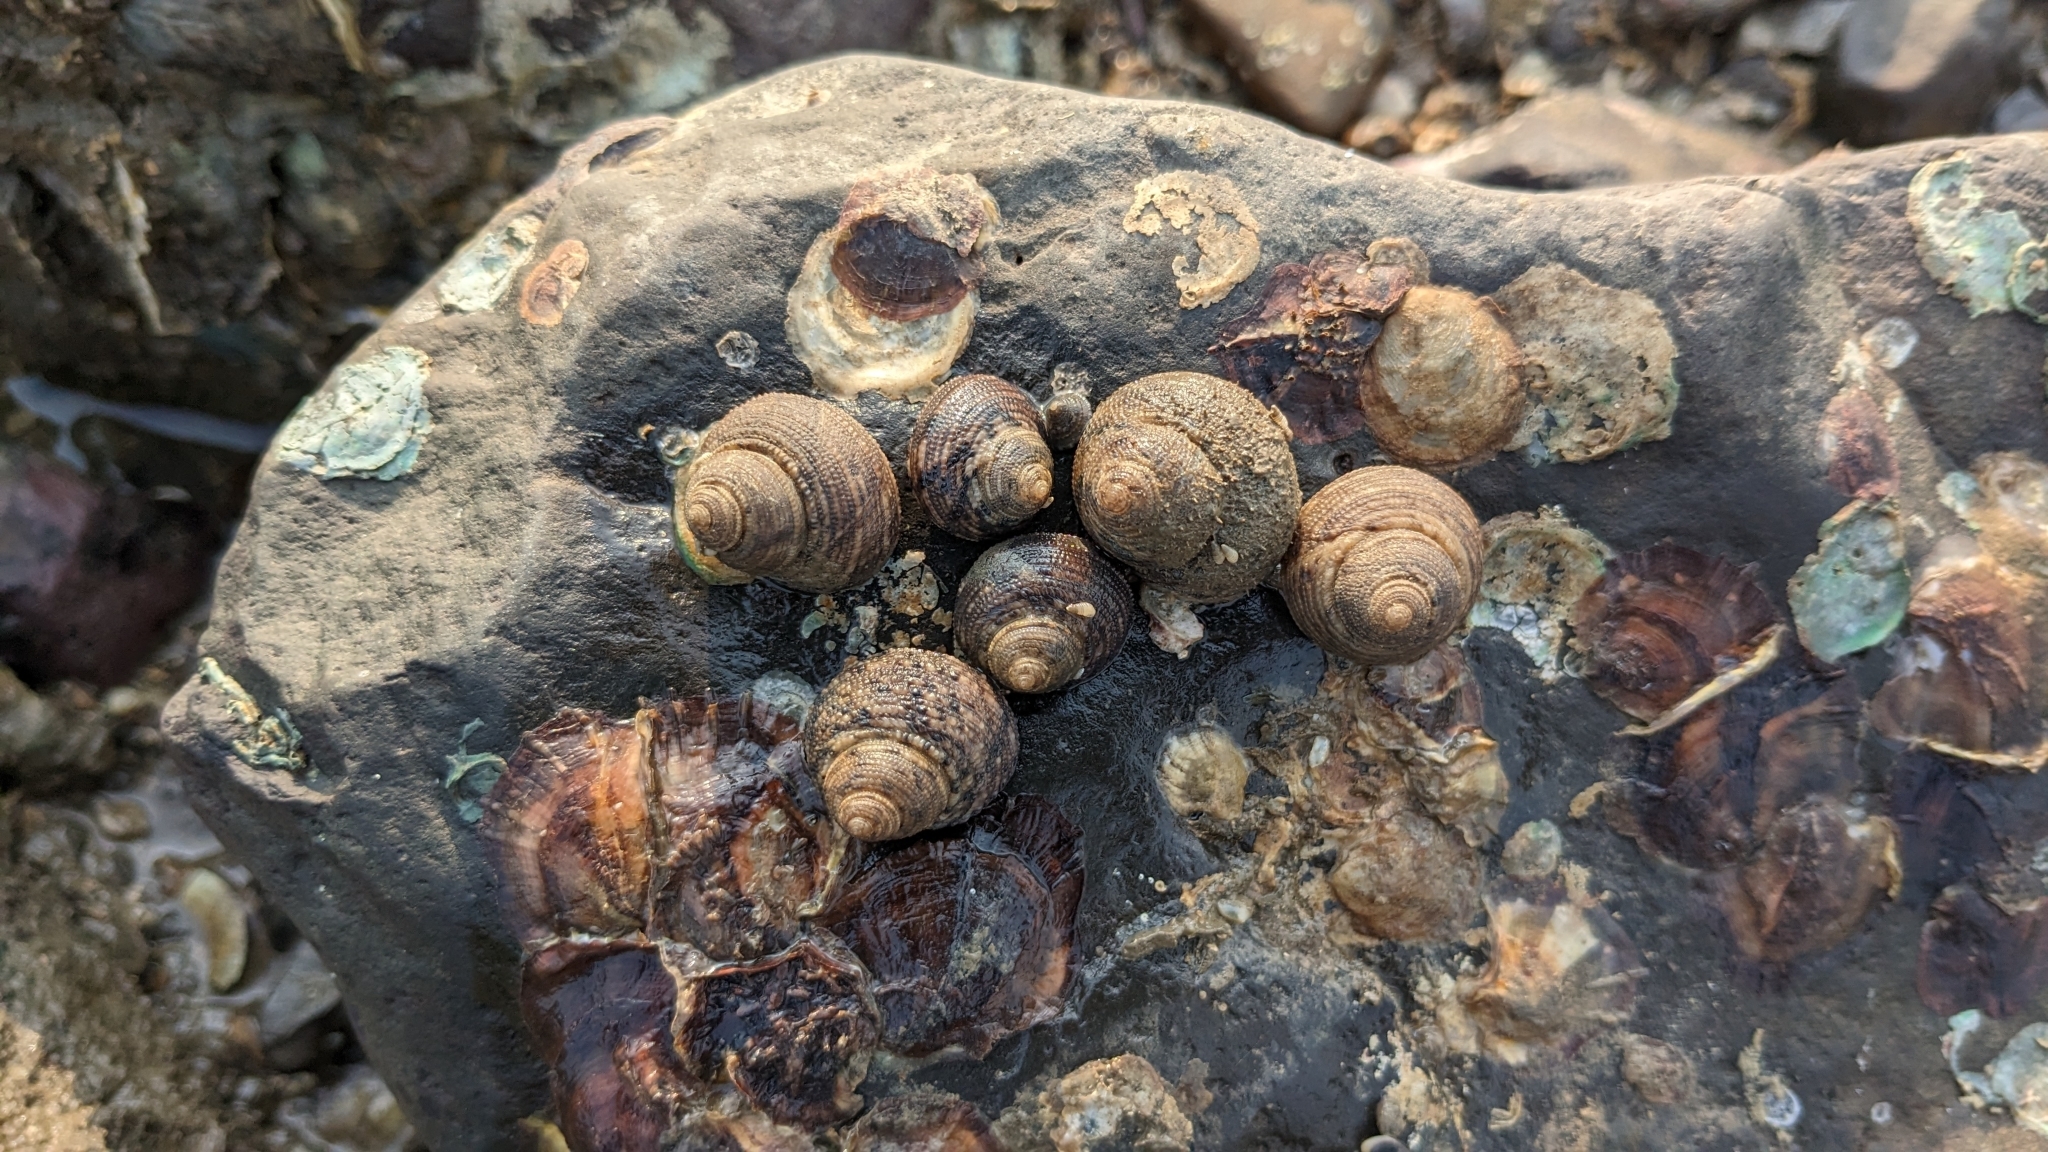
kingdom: Animalia
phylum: Mollusca
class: Gastropoda
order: Seguenziida
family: Chilodontaidae
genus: Euchelus
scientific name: Euchelus asper
